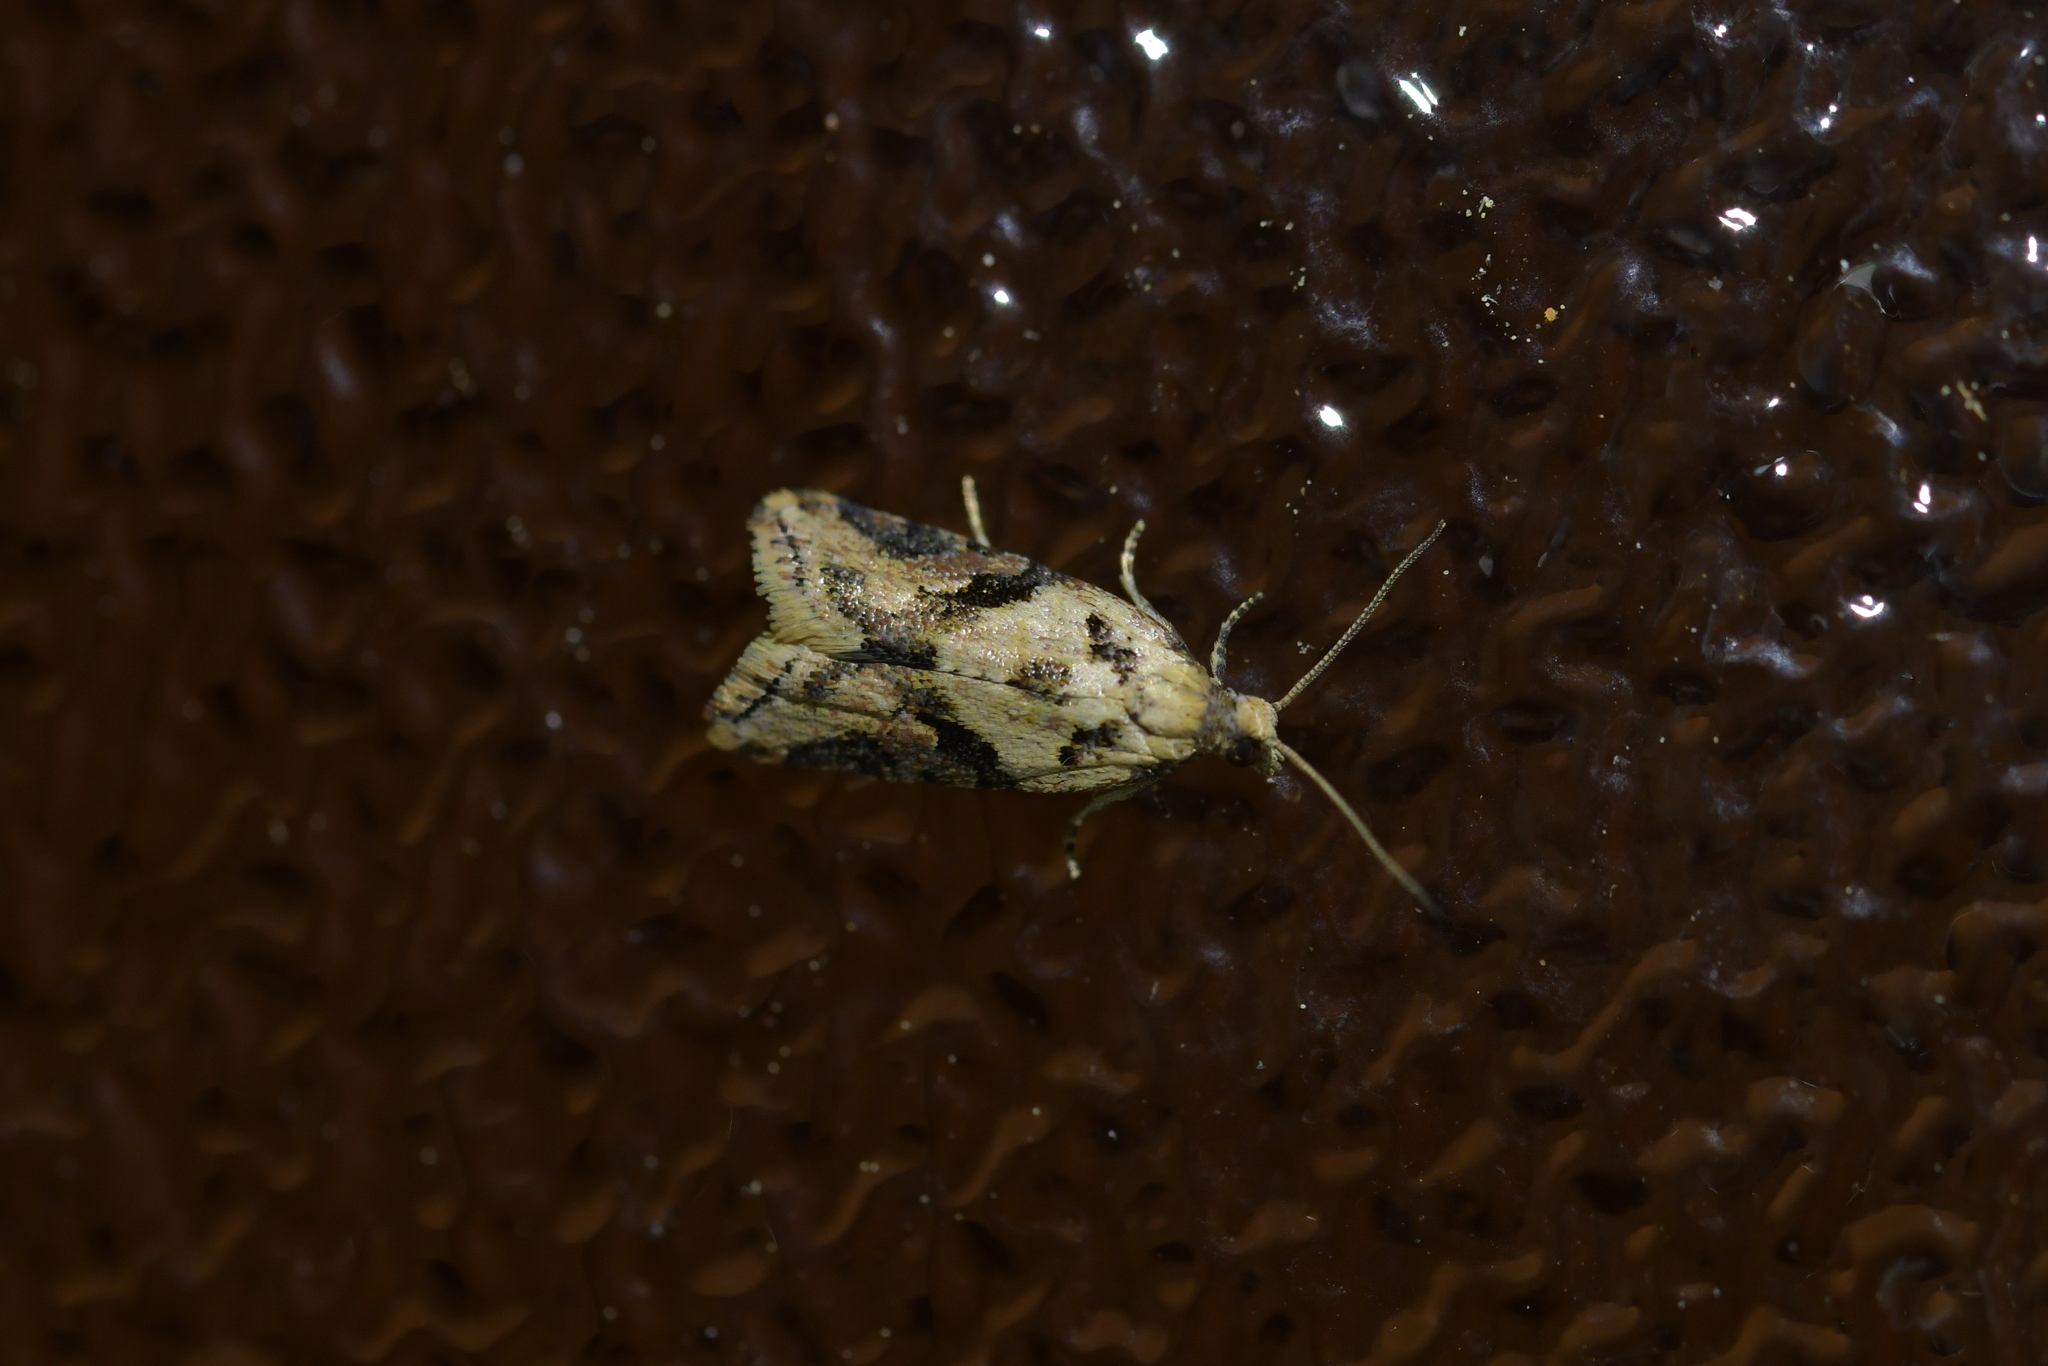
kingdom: Animalia
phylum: Arthropoda
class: Insecta
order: Lepidoptera
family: Tortricidae
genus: Capua
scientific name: Capua semiferana
